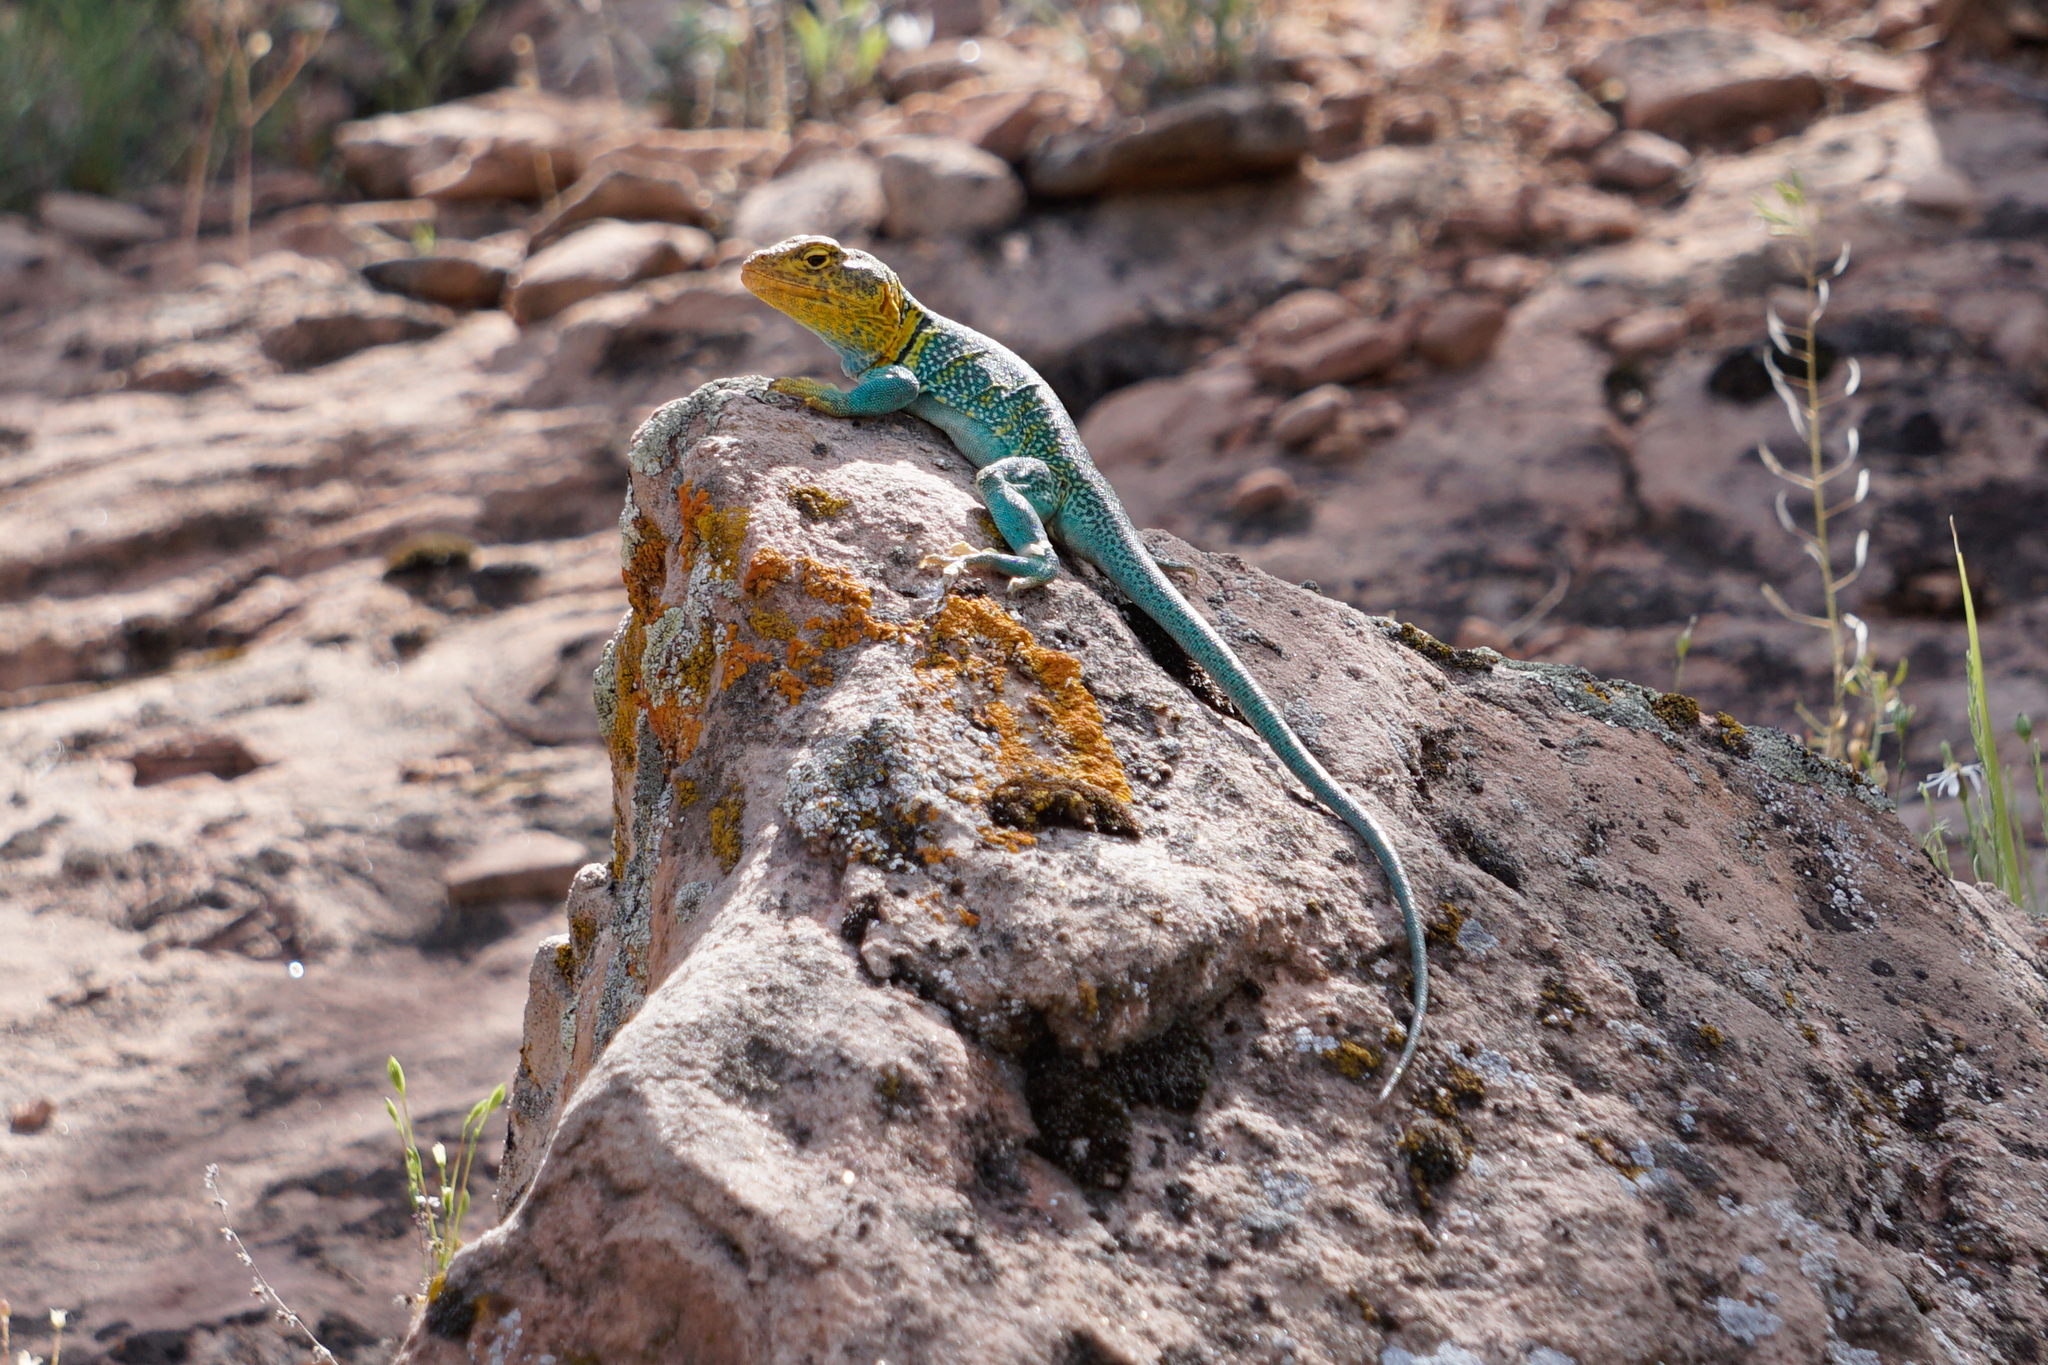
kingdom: Animalia
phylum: Chordata
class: Squamata
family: Crotaphytidae
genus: Crotaphytus
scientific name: Crotaphytus collaris
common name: Collared lizard
